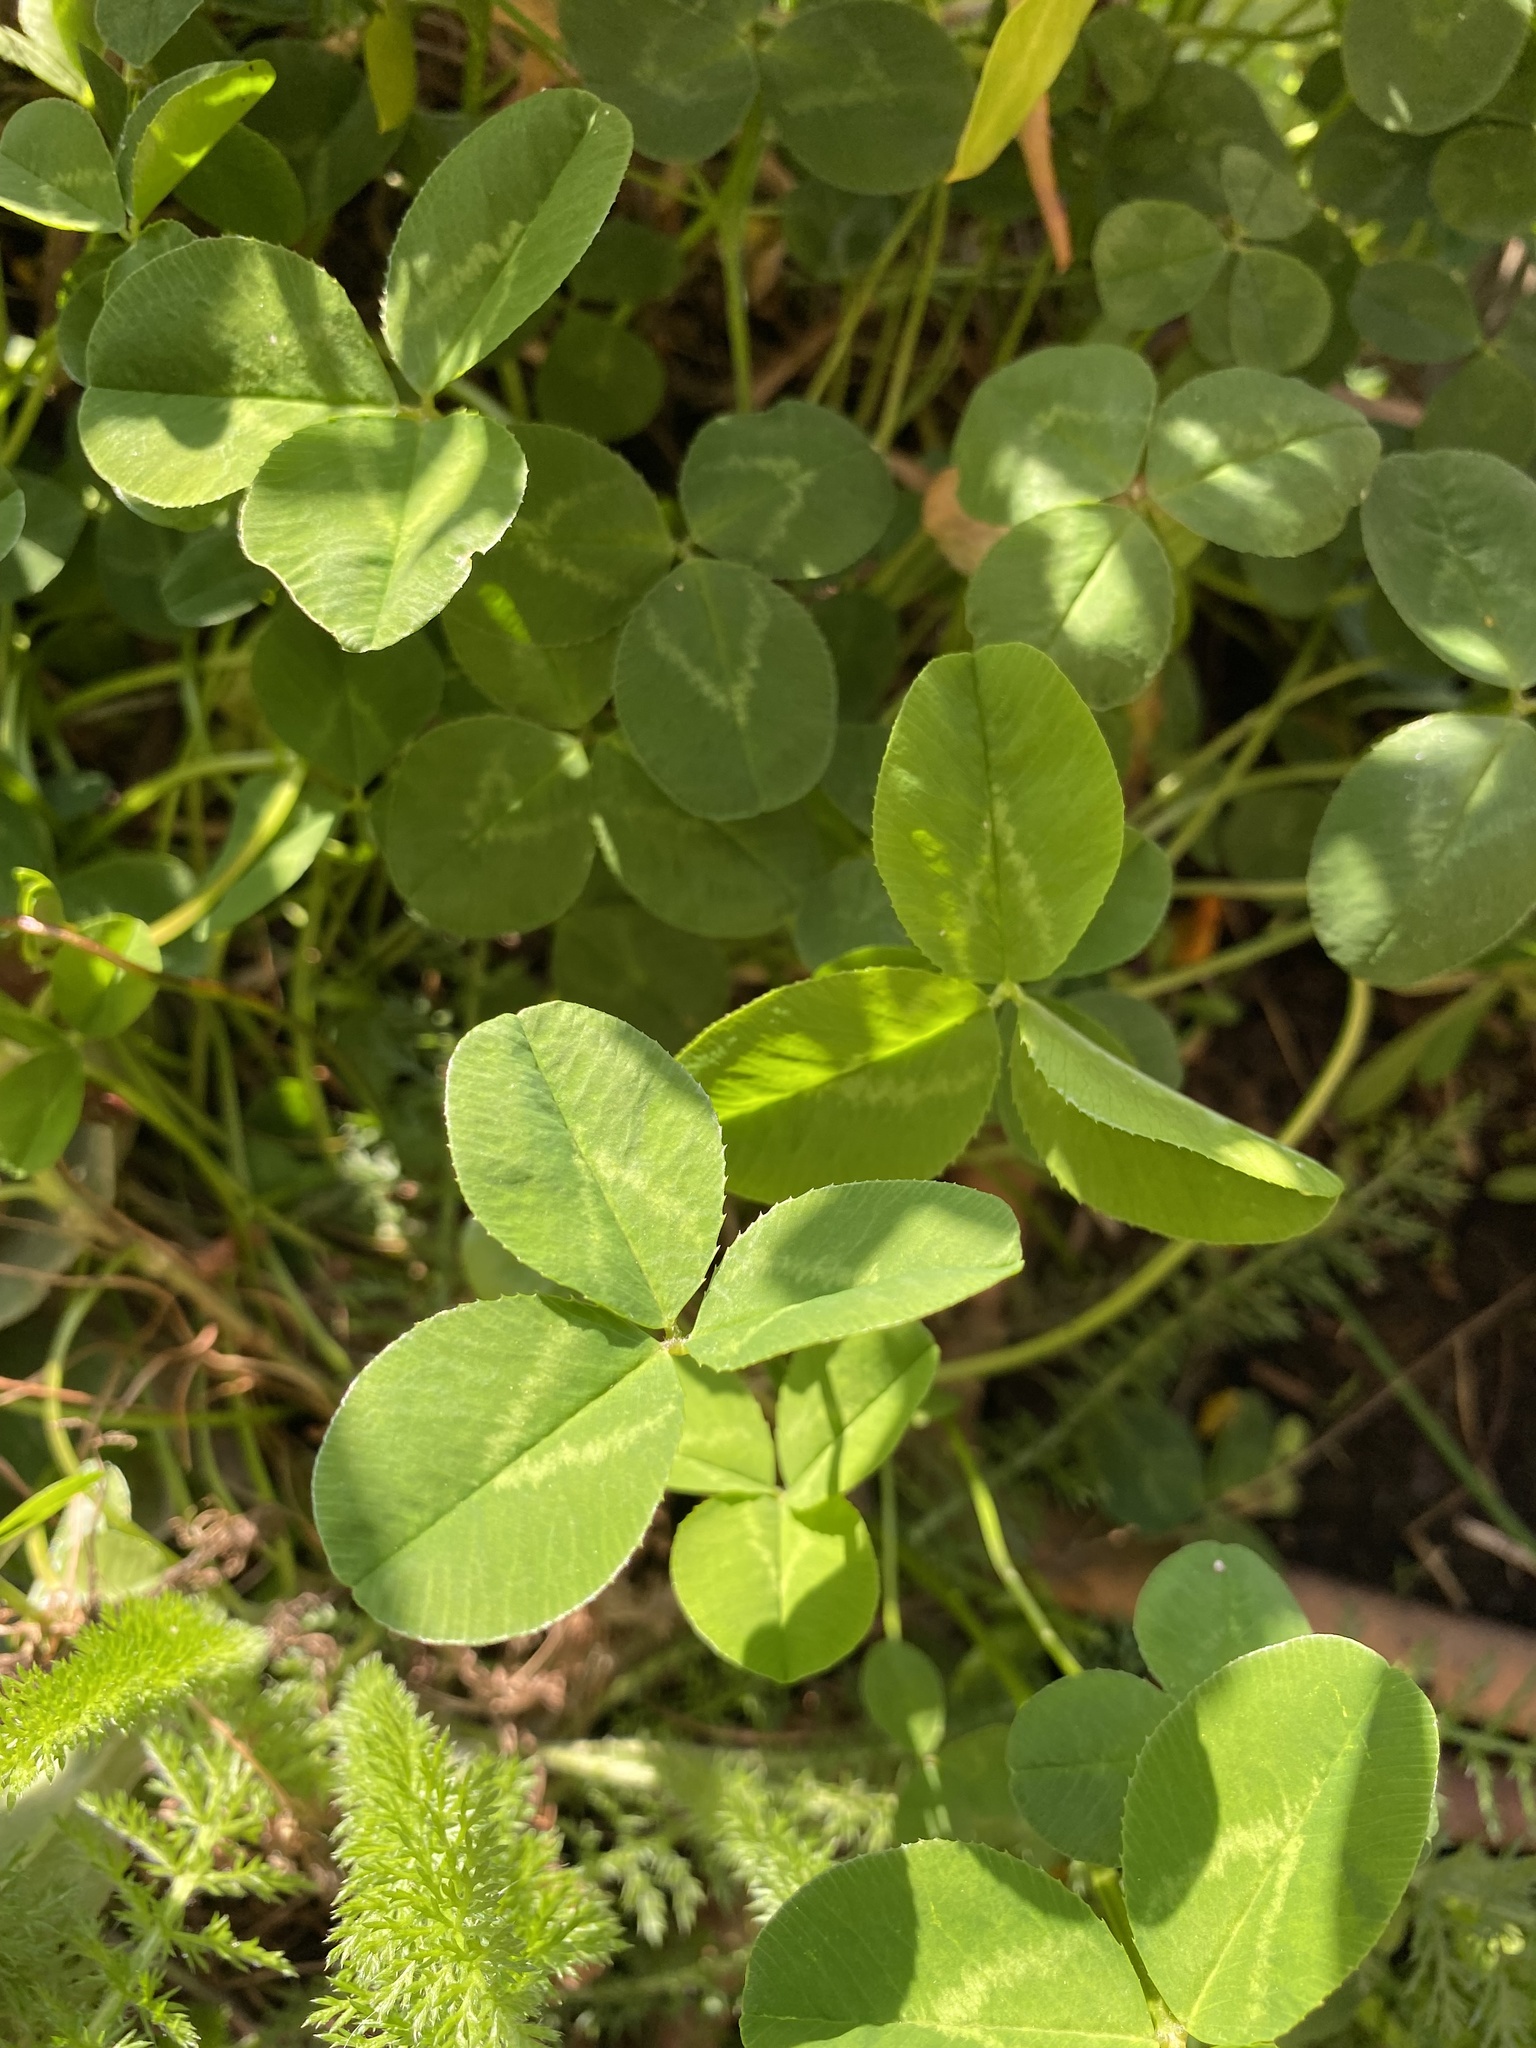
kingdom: Plantae
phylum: Tracheophyta
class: Magnoliopsida
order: Fabales
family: Fabaceae
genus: Trifolium
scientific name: Trifolium repens
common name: White clover
